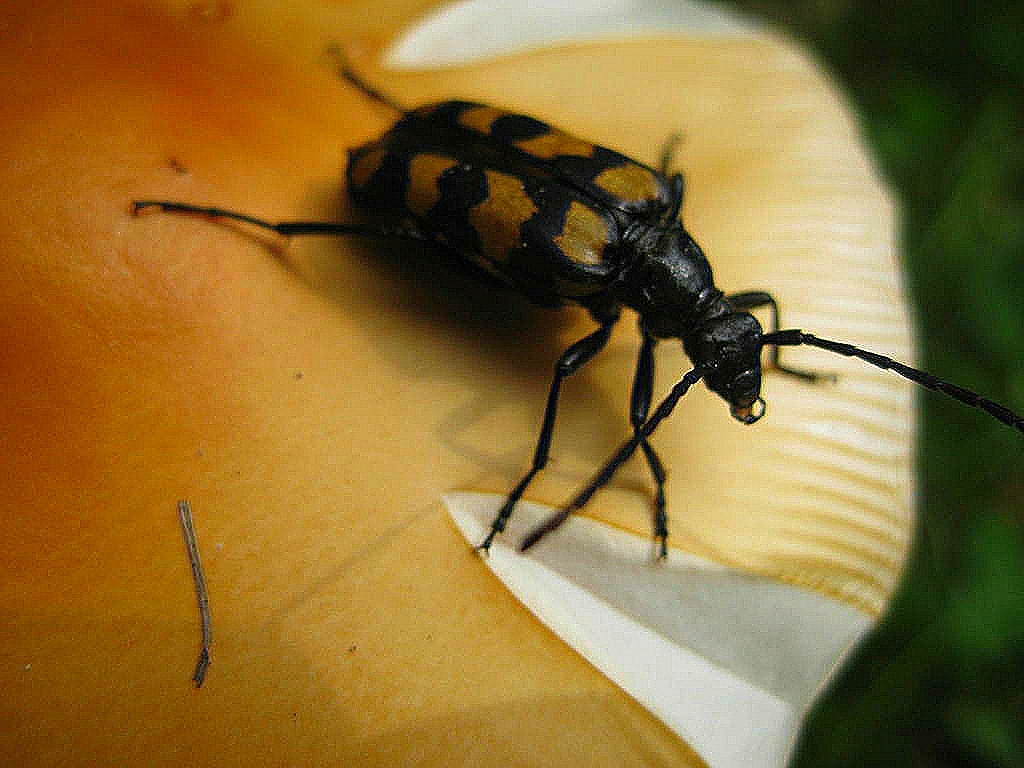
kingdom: Animalia
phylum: Arthropoda
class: Insecta
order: Coleoptera
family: Cerambycidae
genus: Leptura
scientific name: Leptura quadrifasciata
